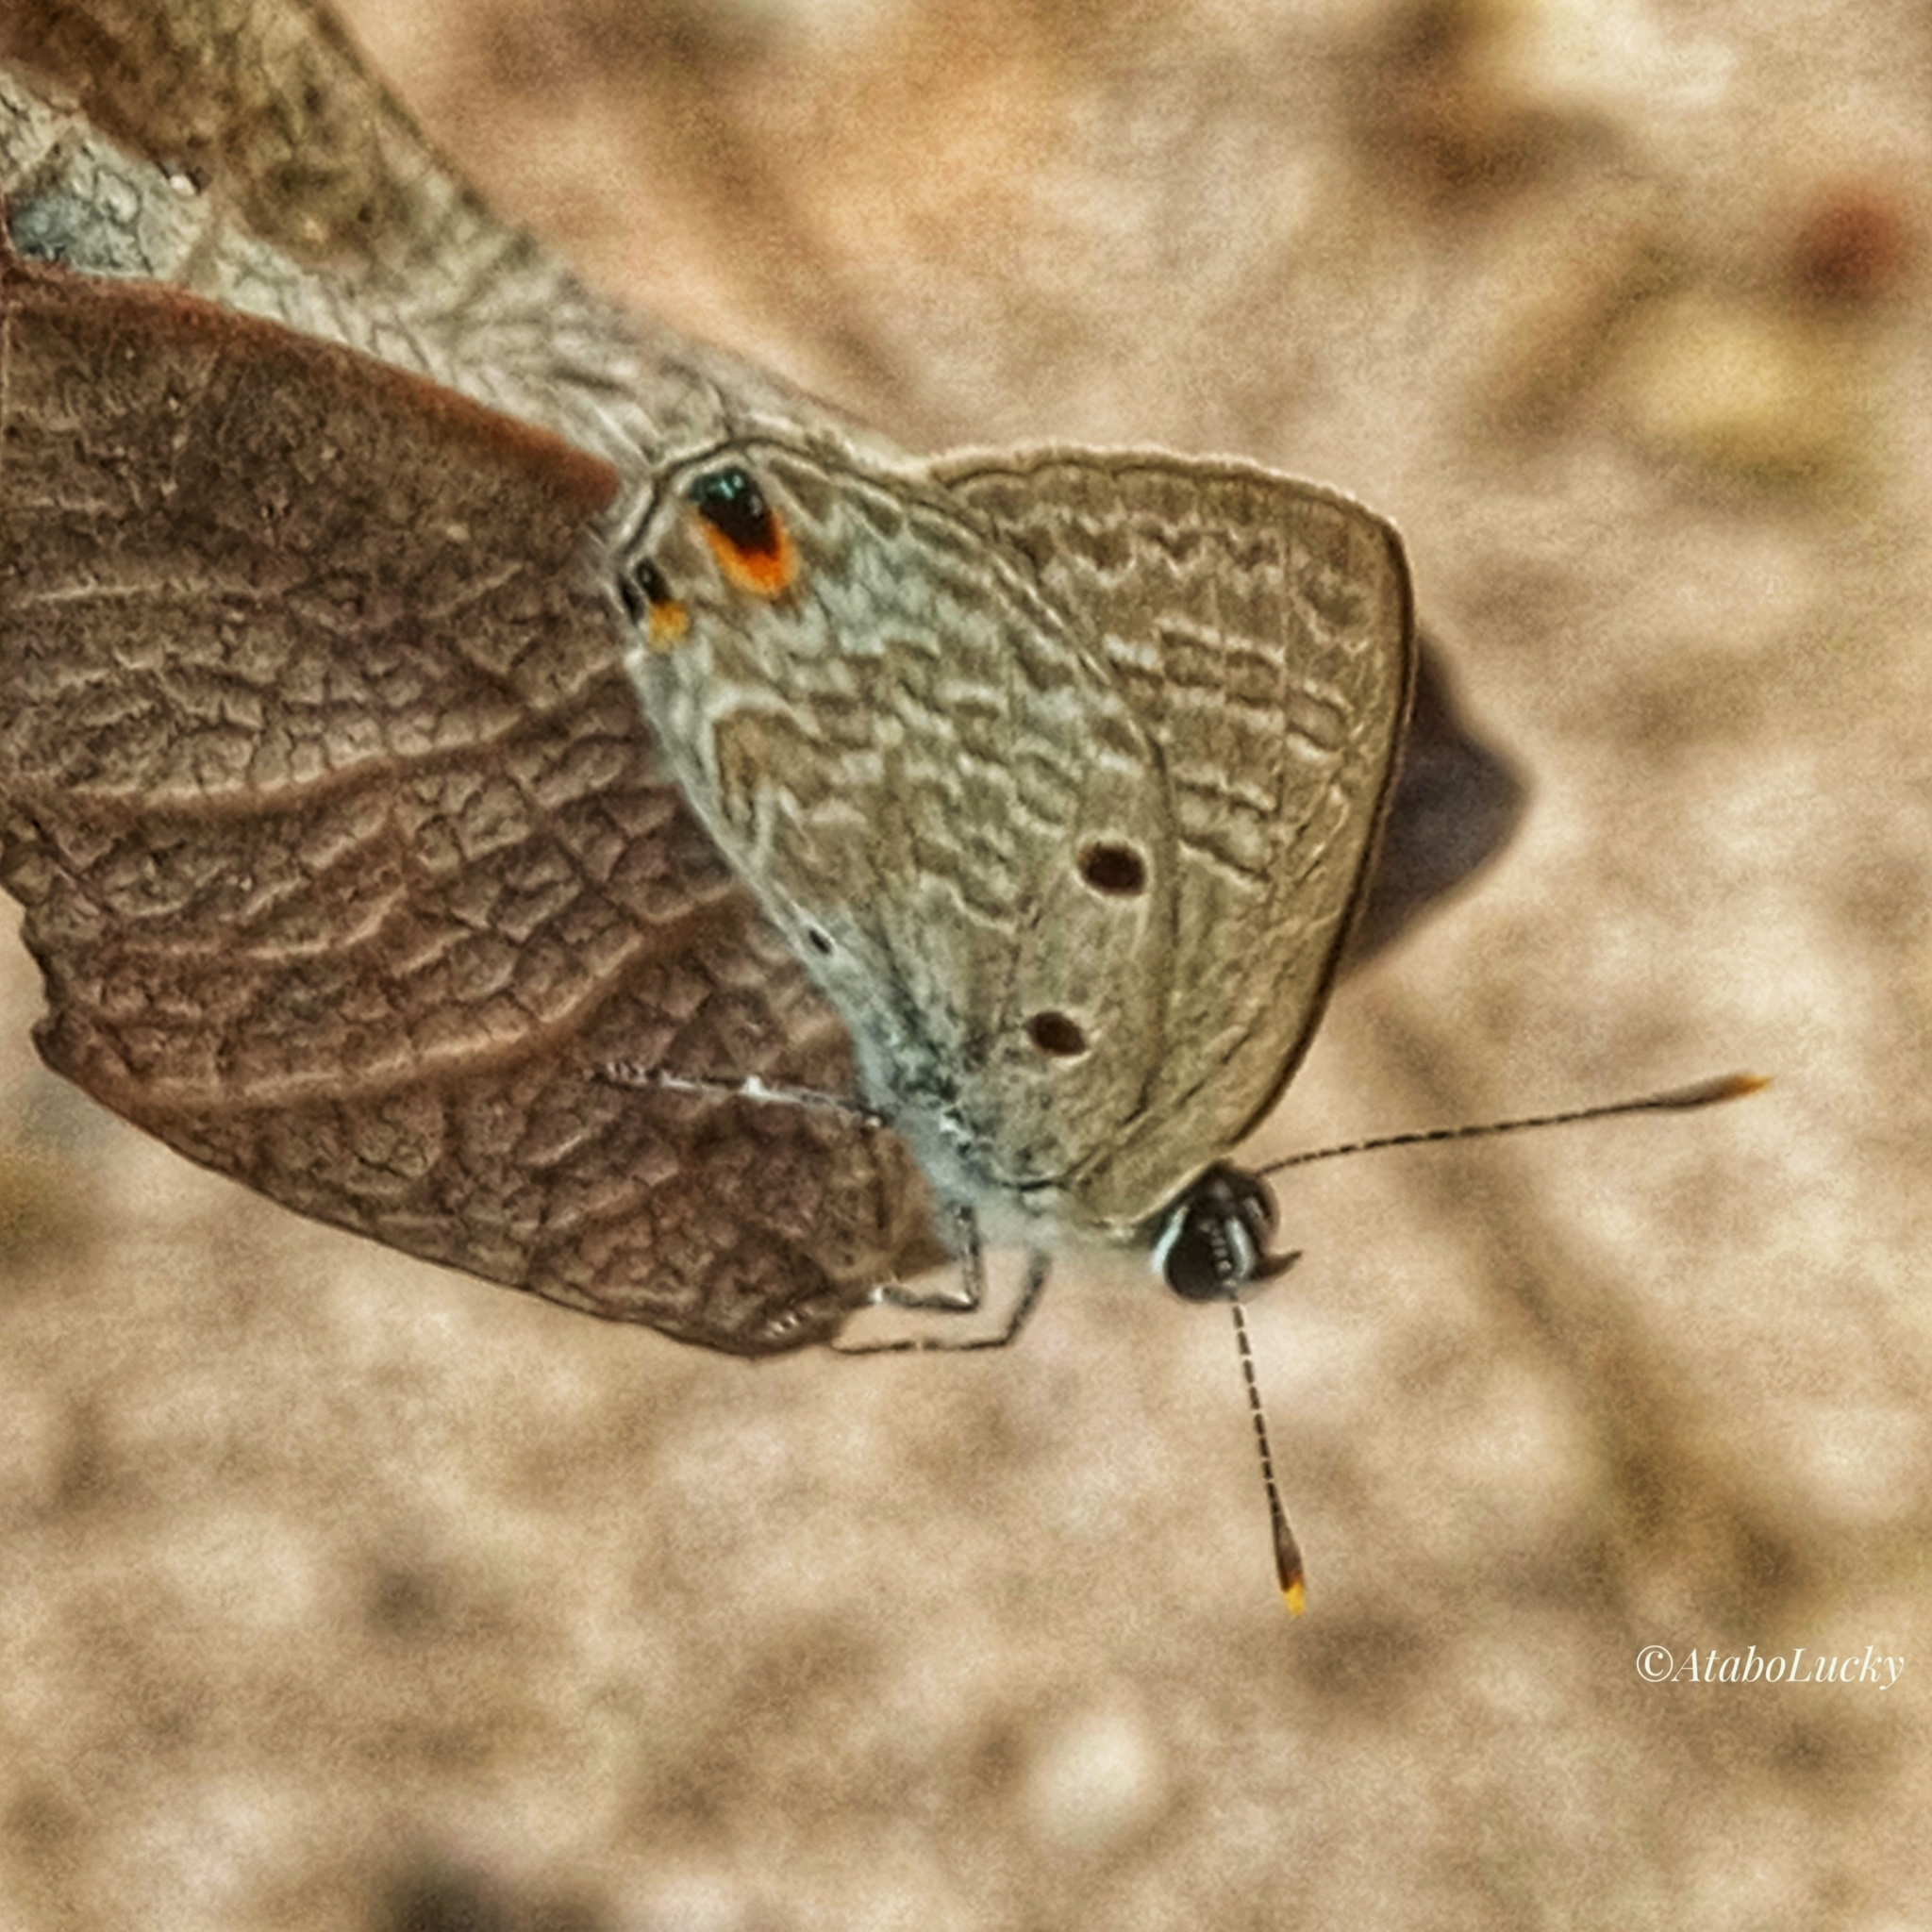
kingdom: Animalia
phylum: Arthropoda
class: Insecta
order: Lepidoptera
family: Lycaenidae
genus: Anthene
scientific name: Anthene lunulata
